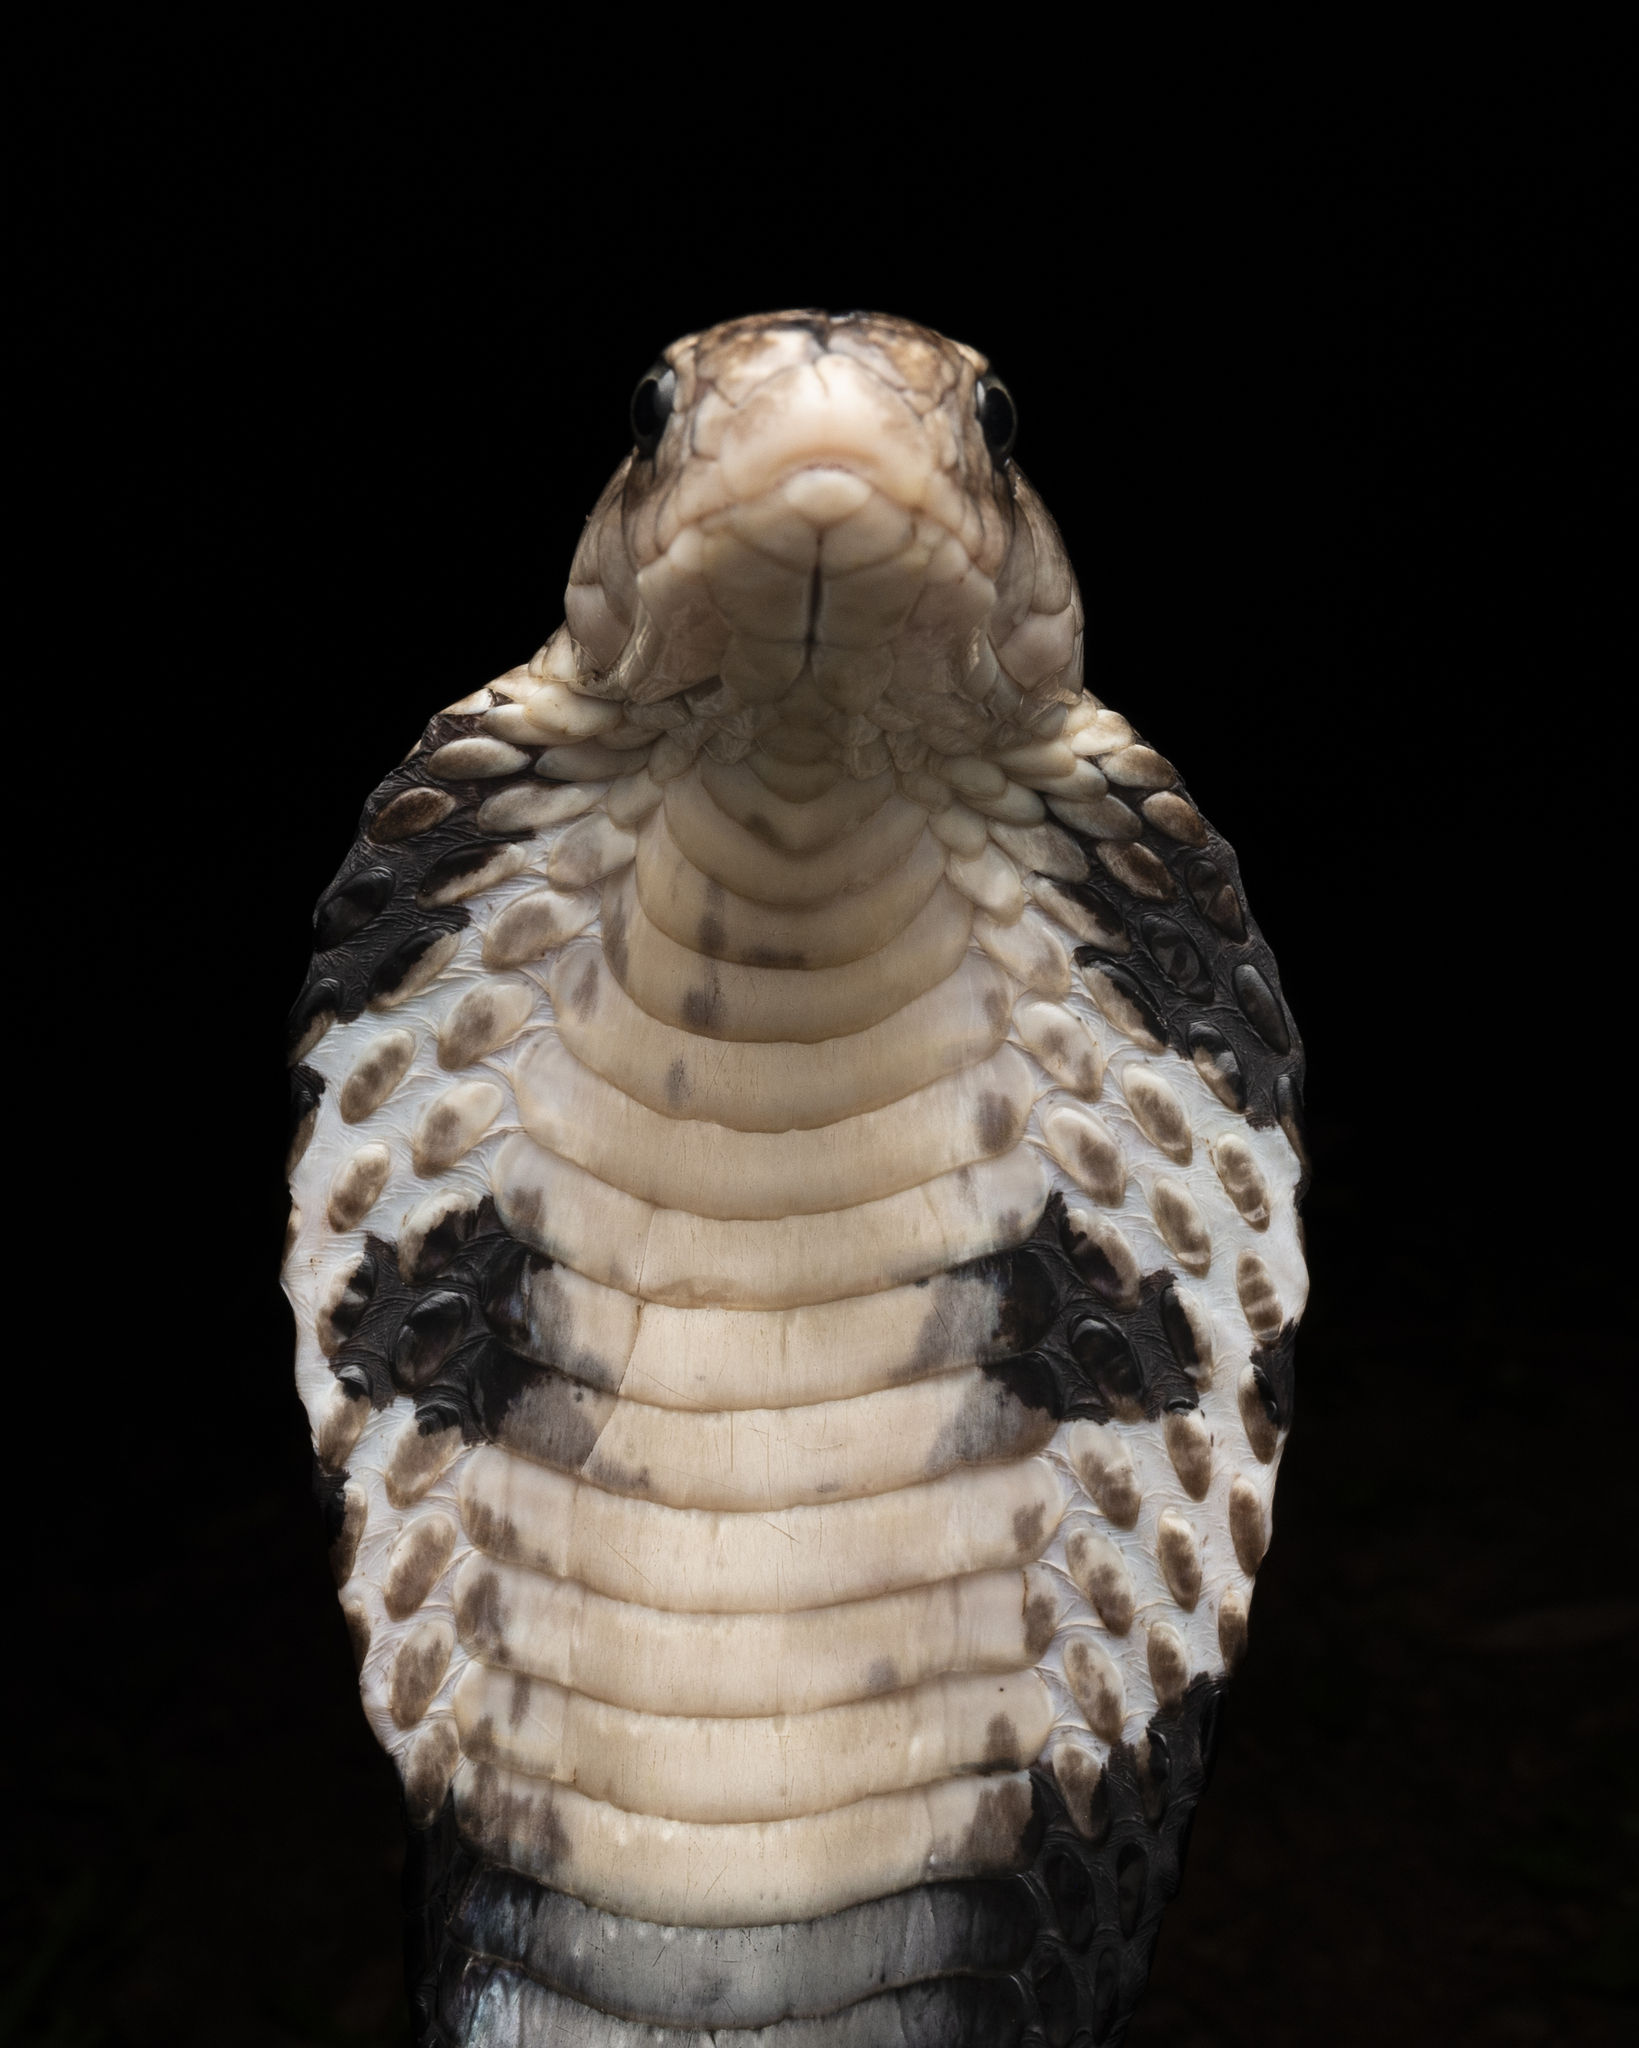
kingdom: Animalia
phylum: Chordata
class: Squamata
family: Elapidae
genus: Naja
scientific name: Naja atra
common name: Chinese cobra
